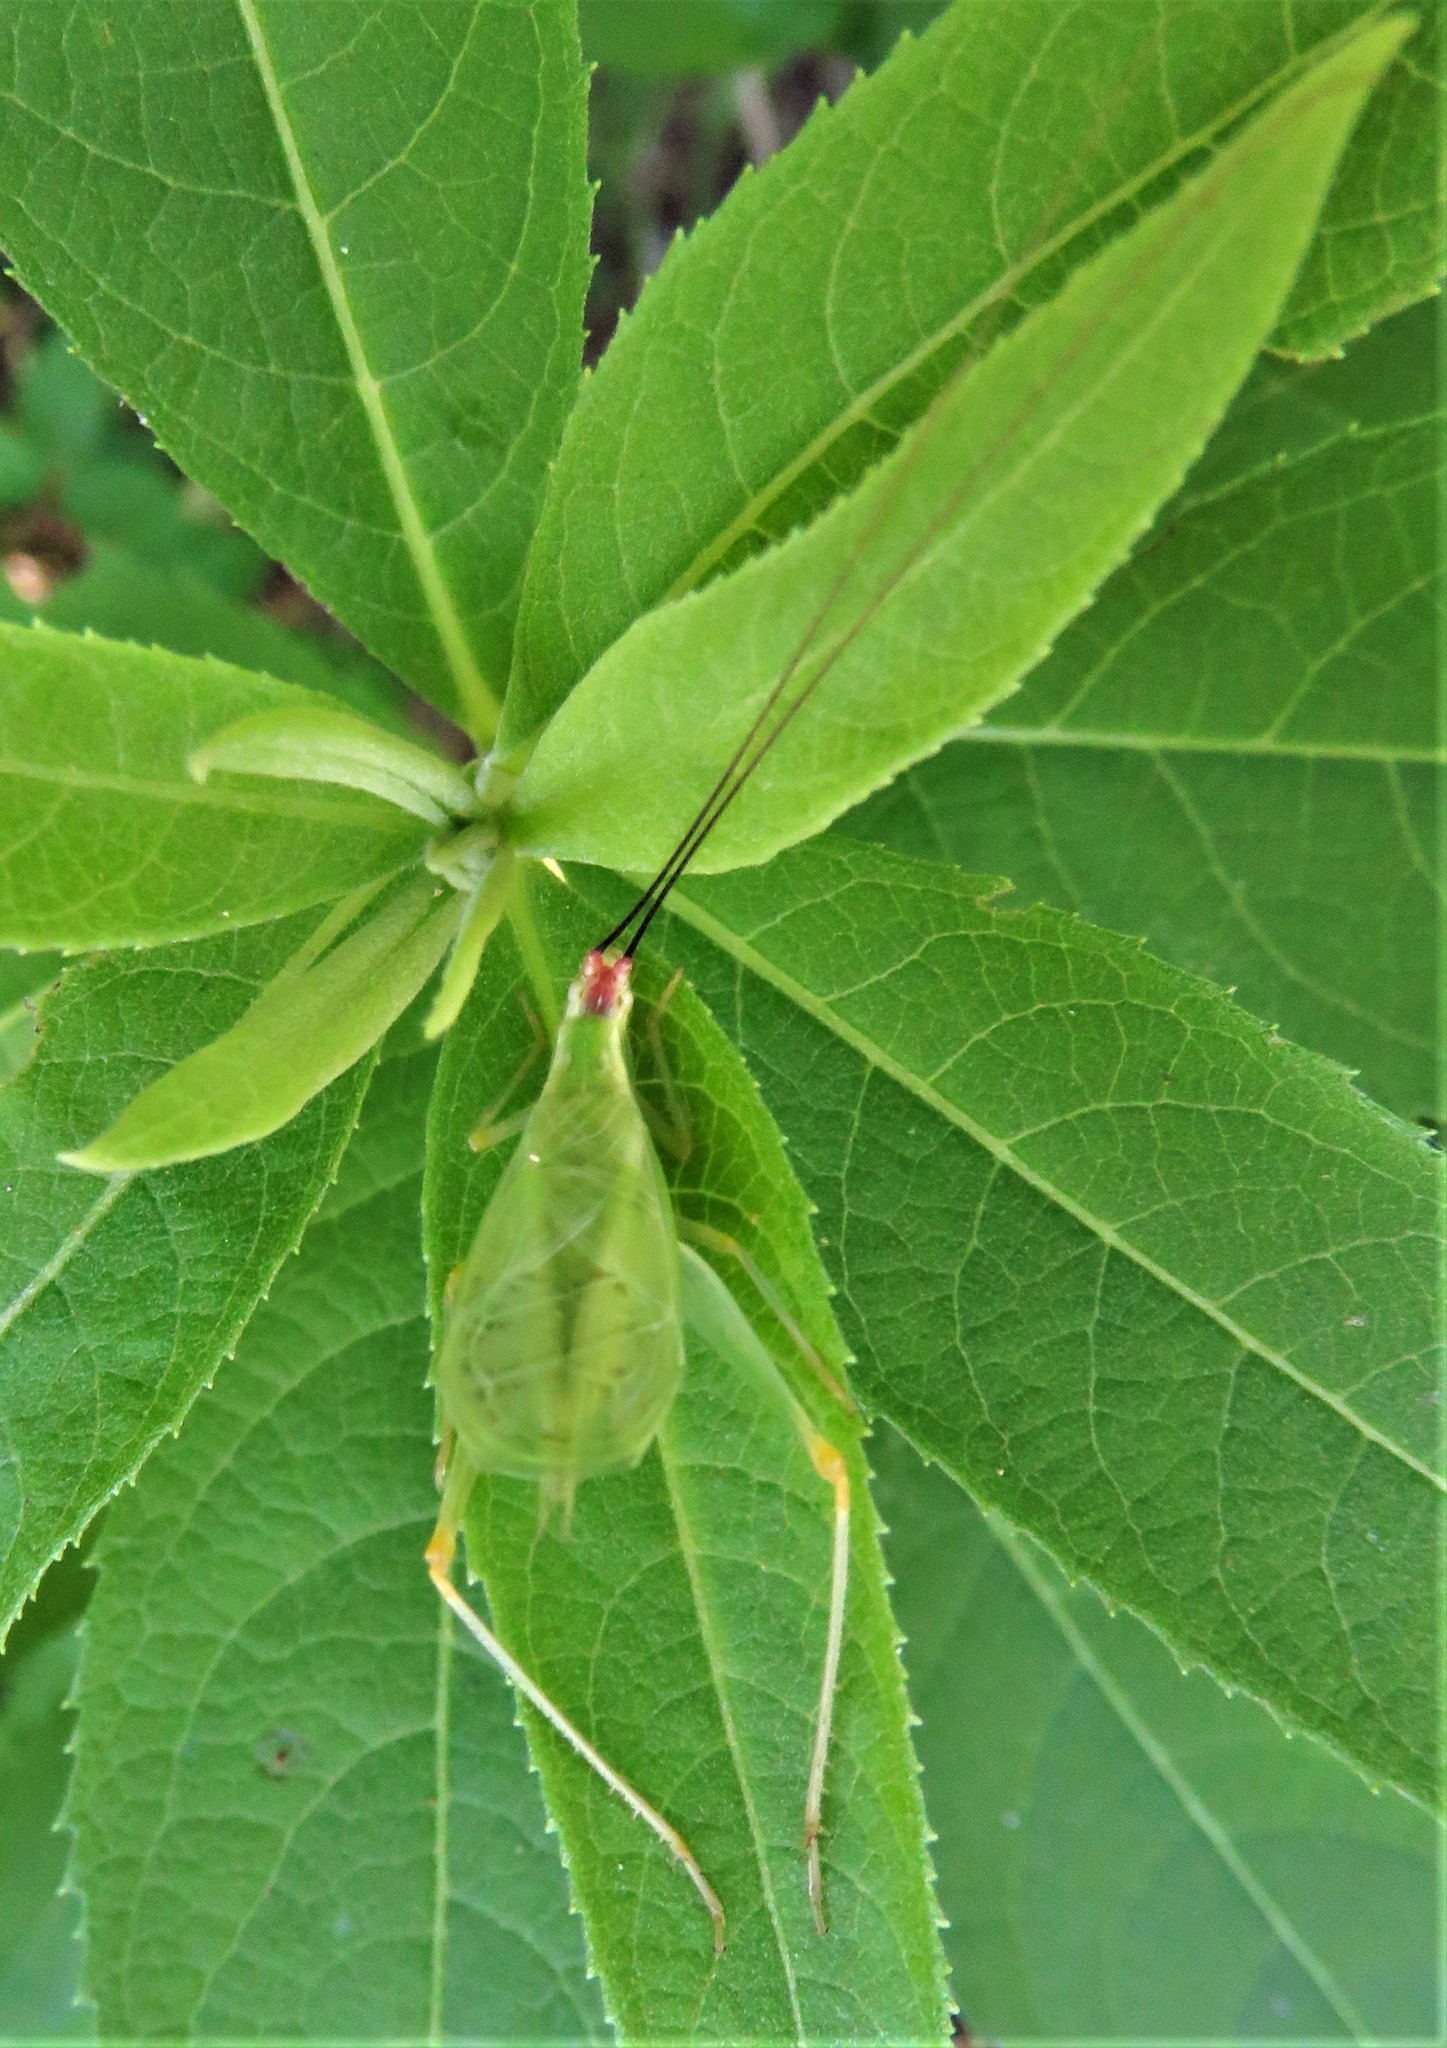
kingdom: Animalia
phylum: Arthropoda
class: Insecta
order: Orthoptera
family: Gryllidae
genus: Oecanthus
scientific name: Oecanthus varicornis
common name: Different-horned tree cricket
